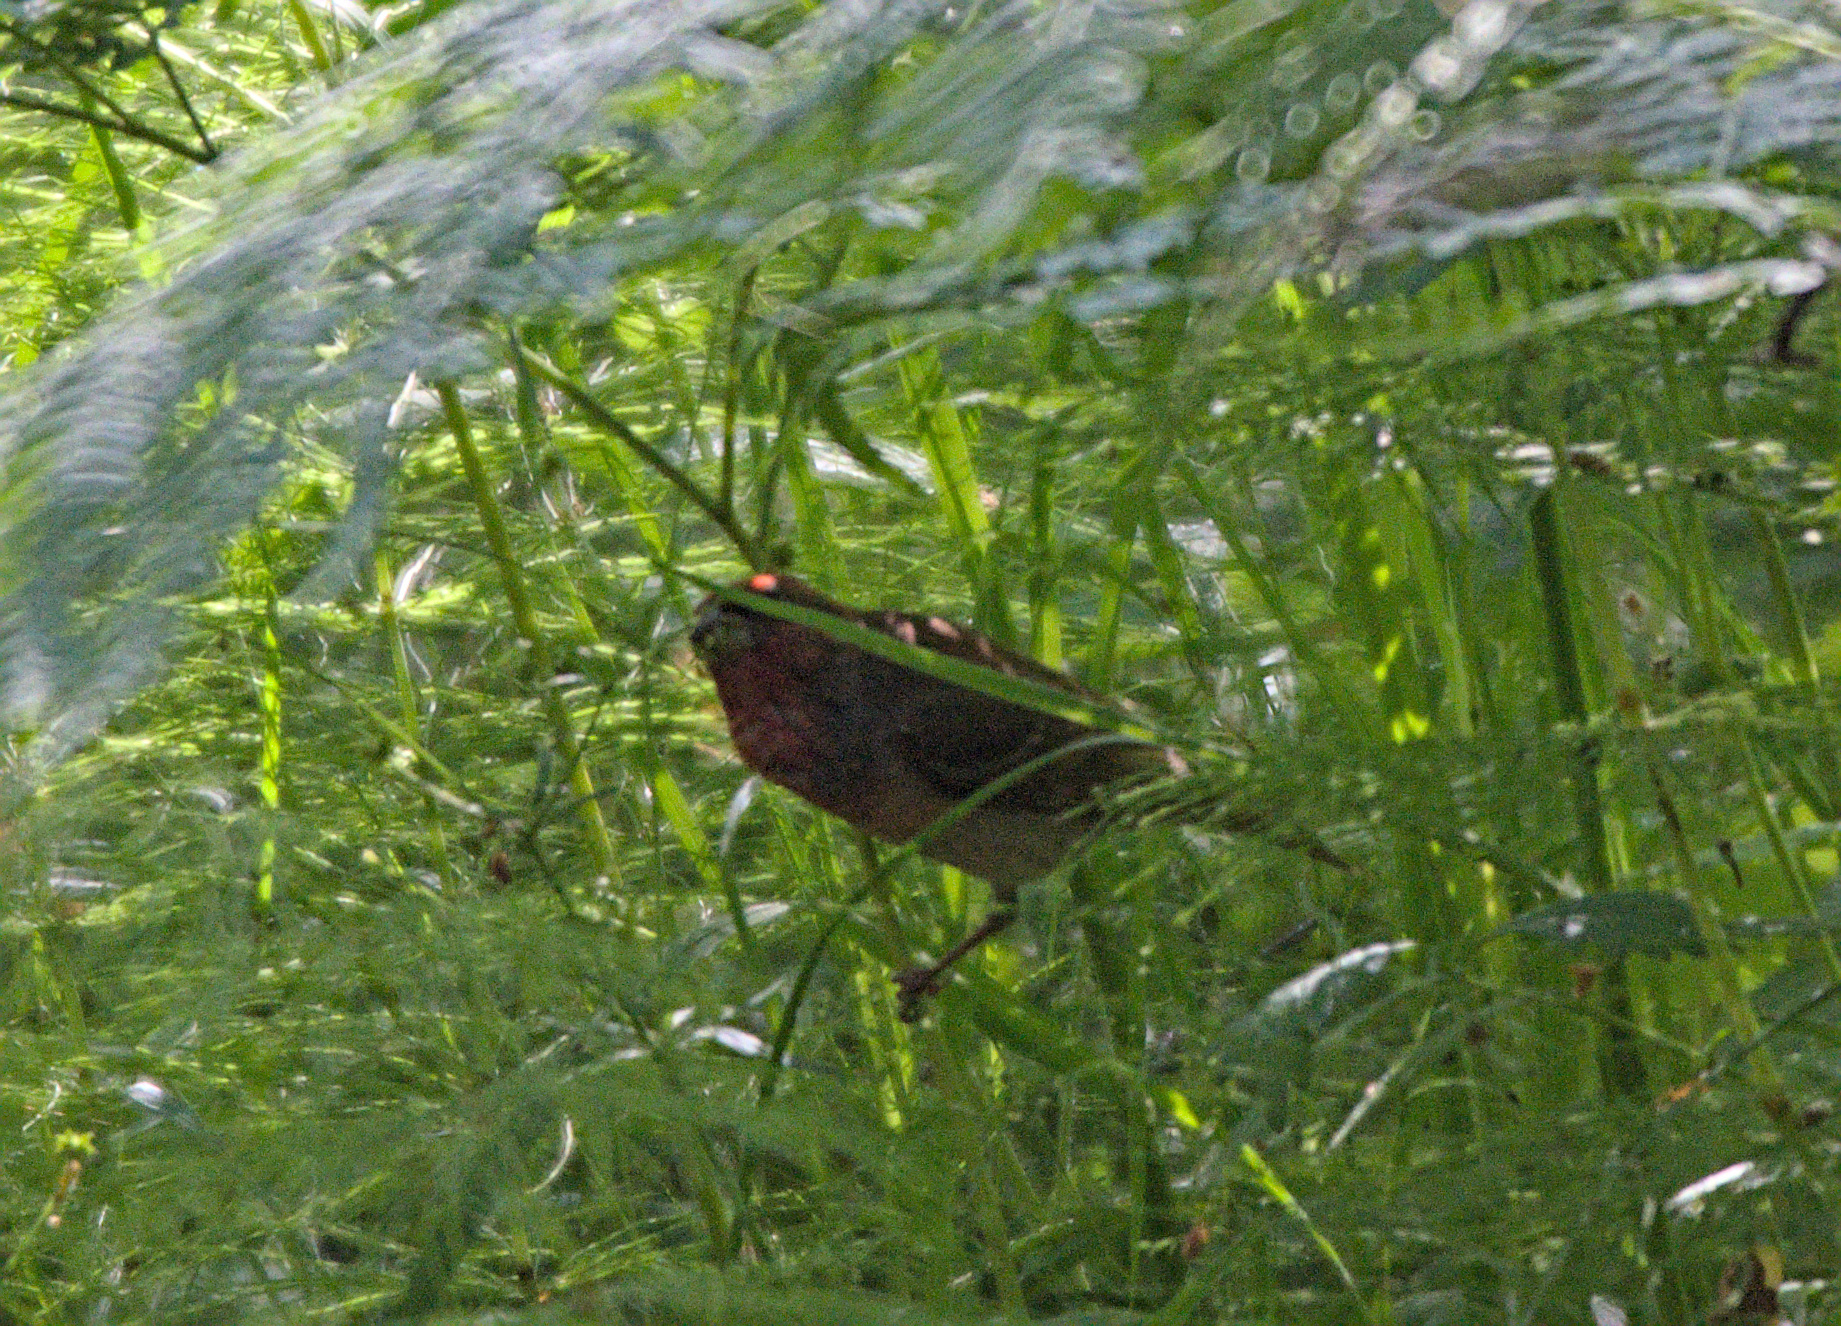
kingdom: Animalia
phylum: Chordata
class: Aves
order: Passeriformes
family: Fringillidae
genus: Carpodacus
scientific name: Carpodacus erythrinus
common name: Common rosefinch
